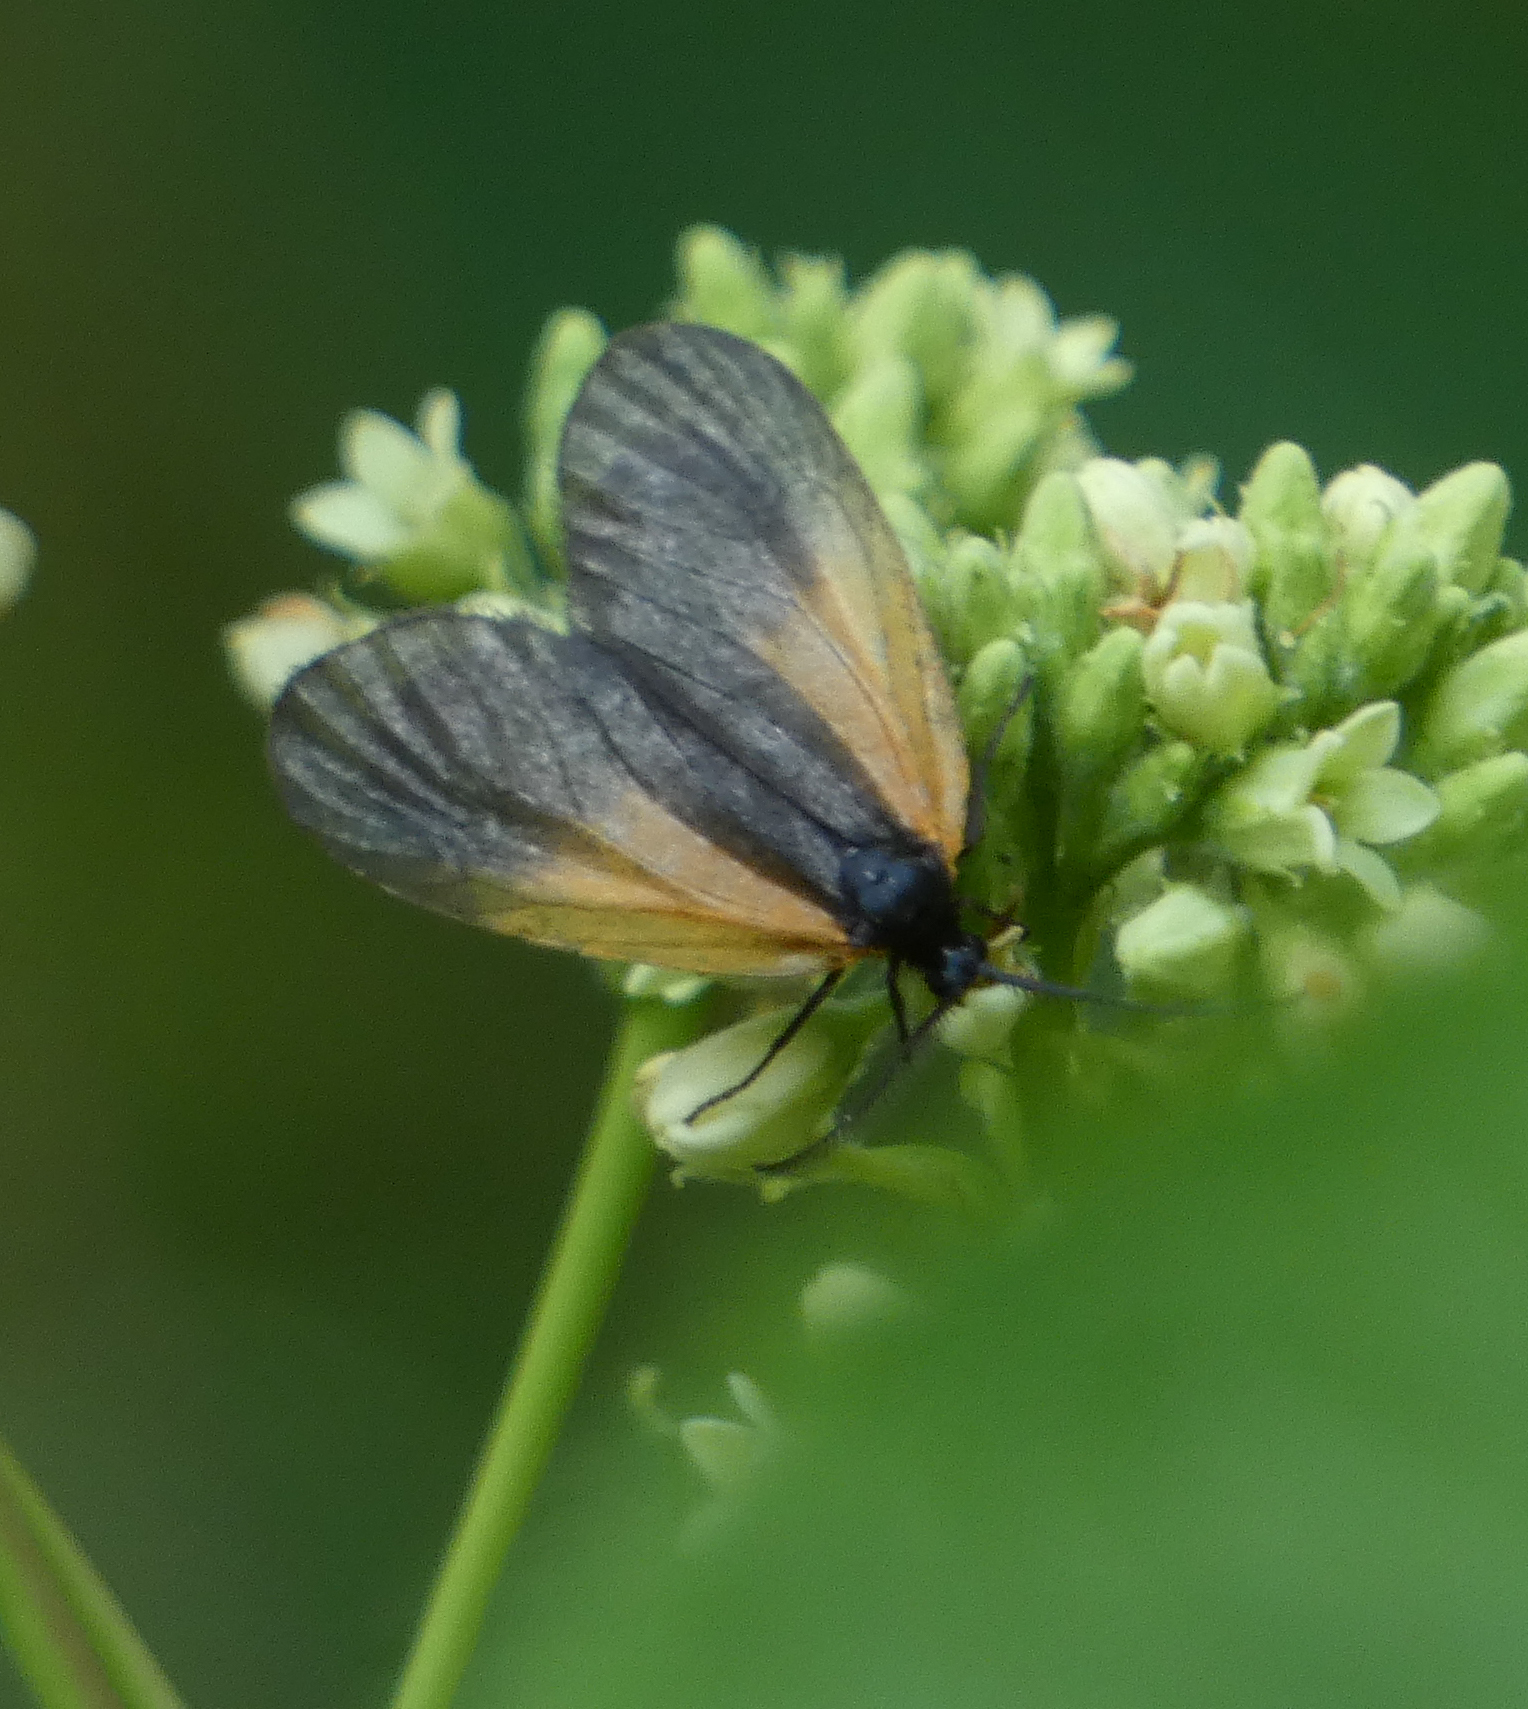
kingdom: Animalia
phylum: Arthropoda
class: Insecta
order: Lepidoptera
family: Zygaenidae
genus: Malthaca
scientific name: Malthaca dimidiata
